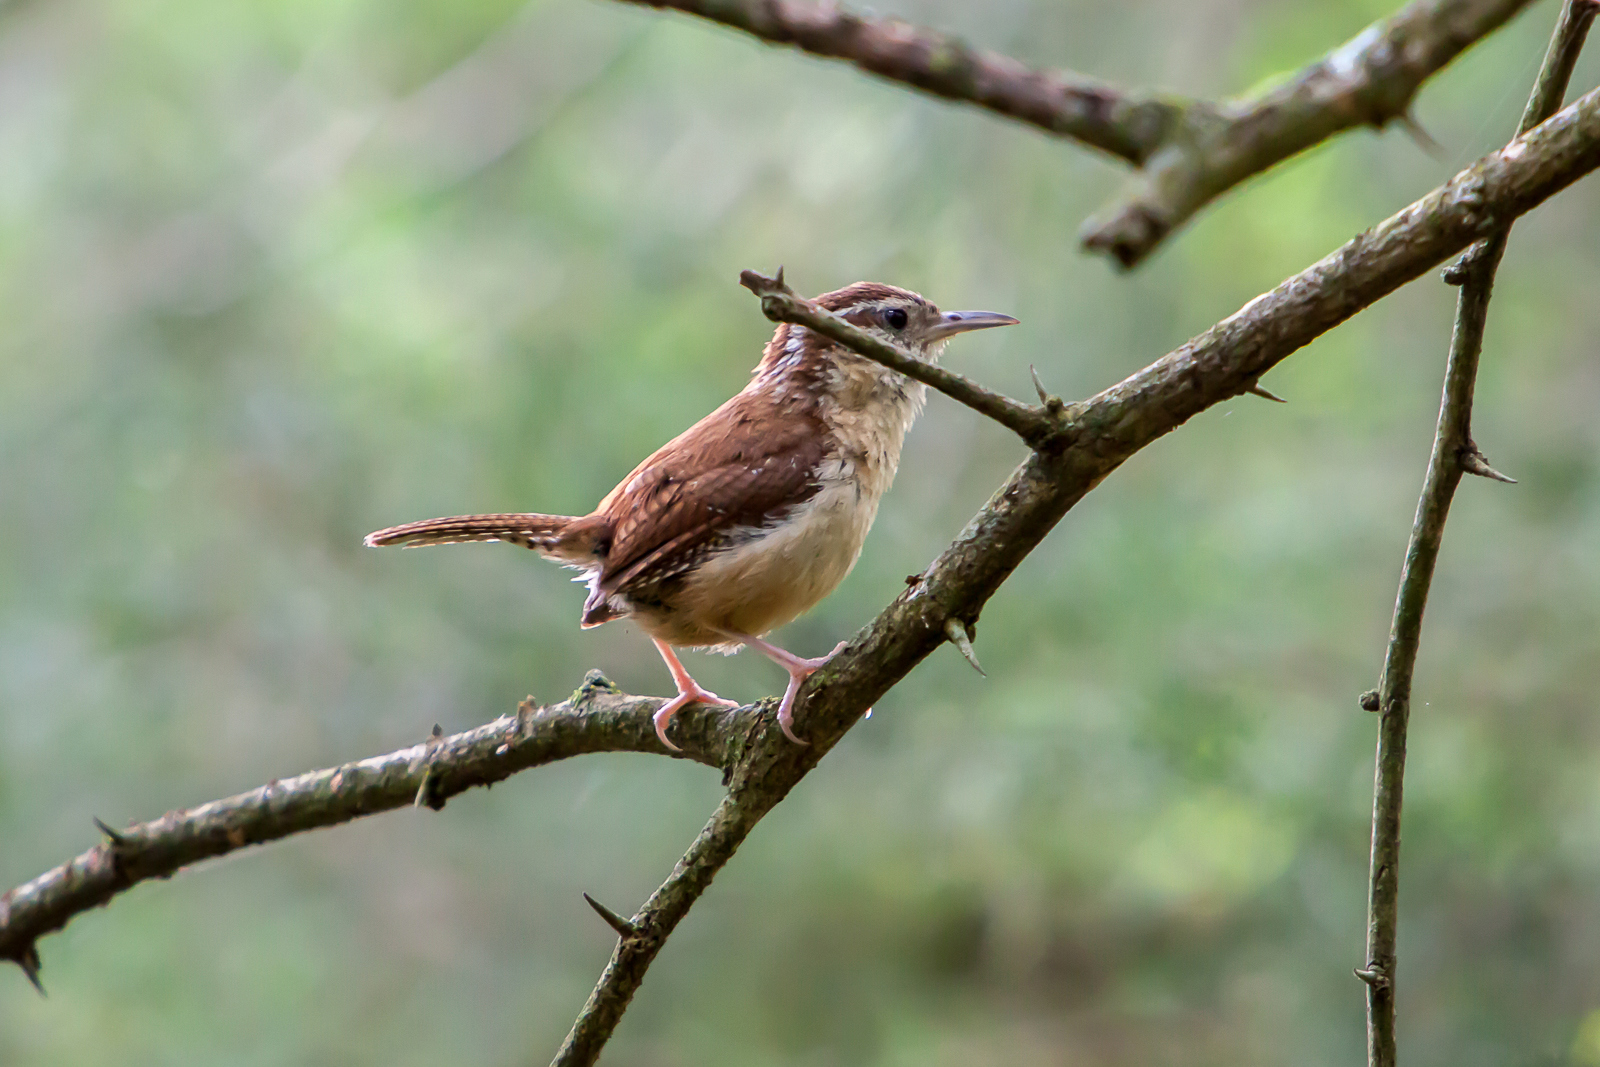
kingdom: Animalia
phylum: Chordata
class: Aves
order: Passeriformes
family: Troglodytidae
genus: Thryothorus
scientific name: Thryothorus ludovicianus
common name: Carolina wren
